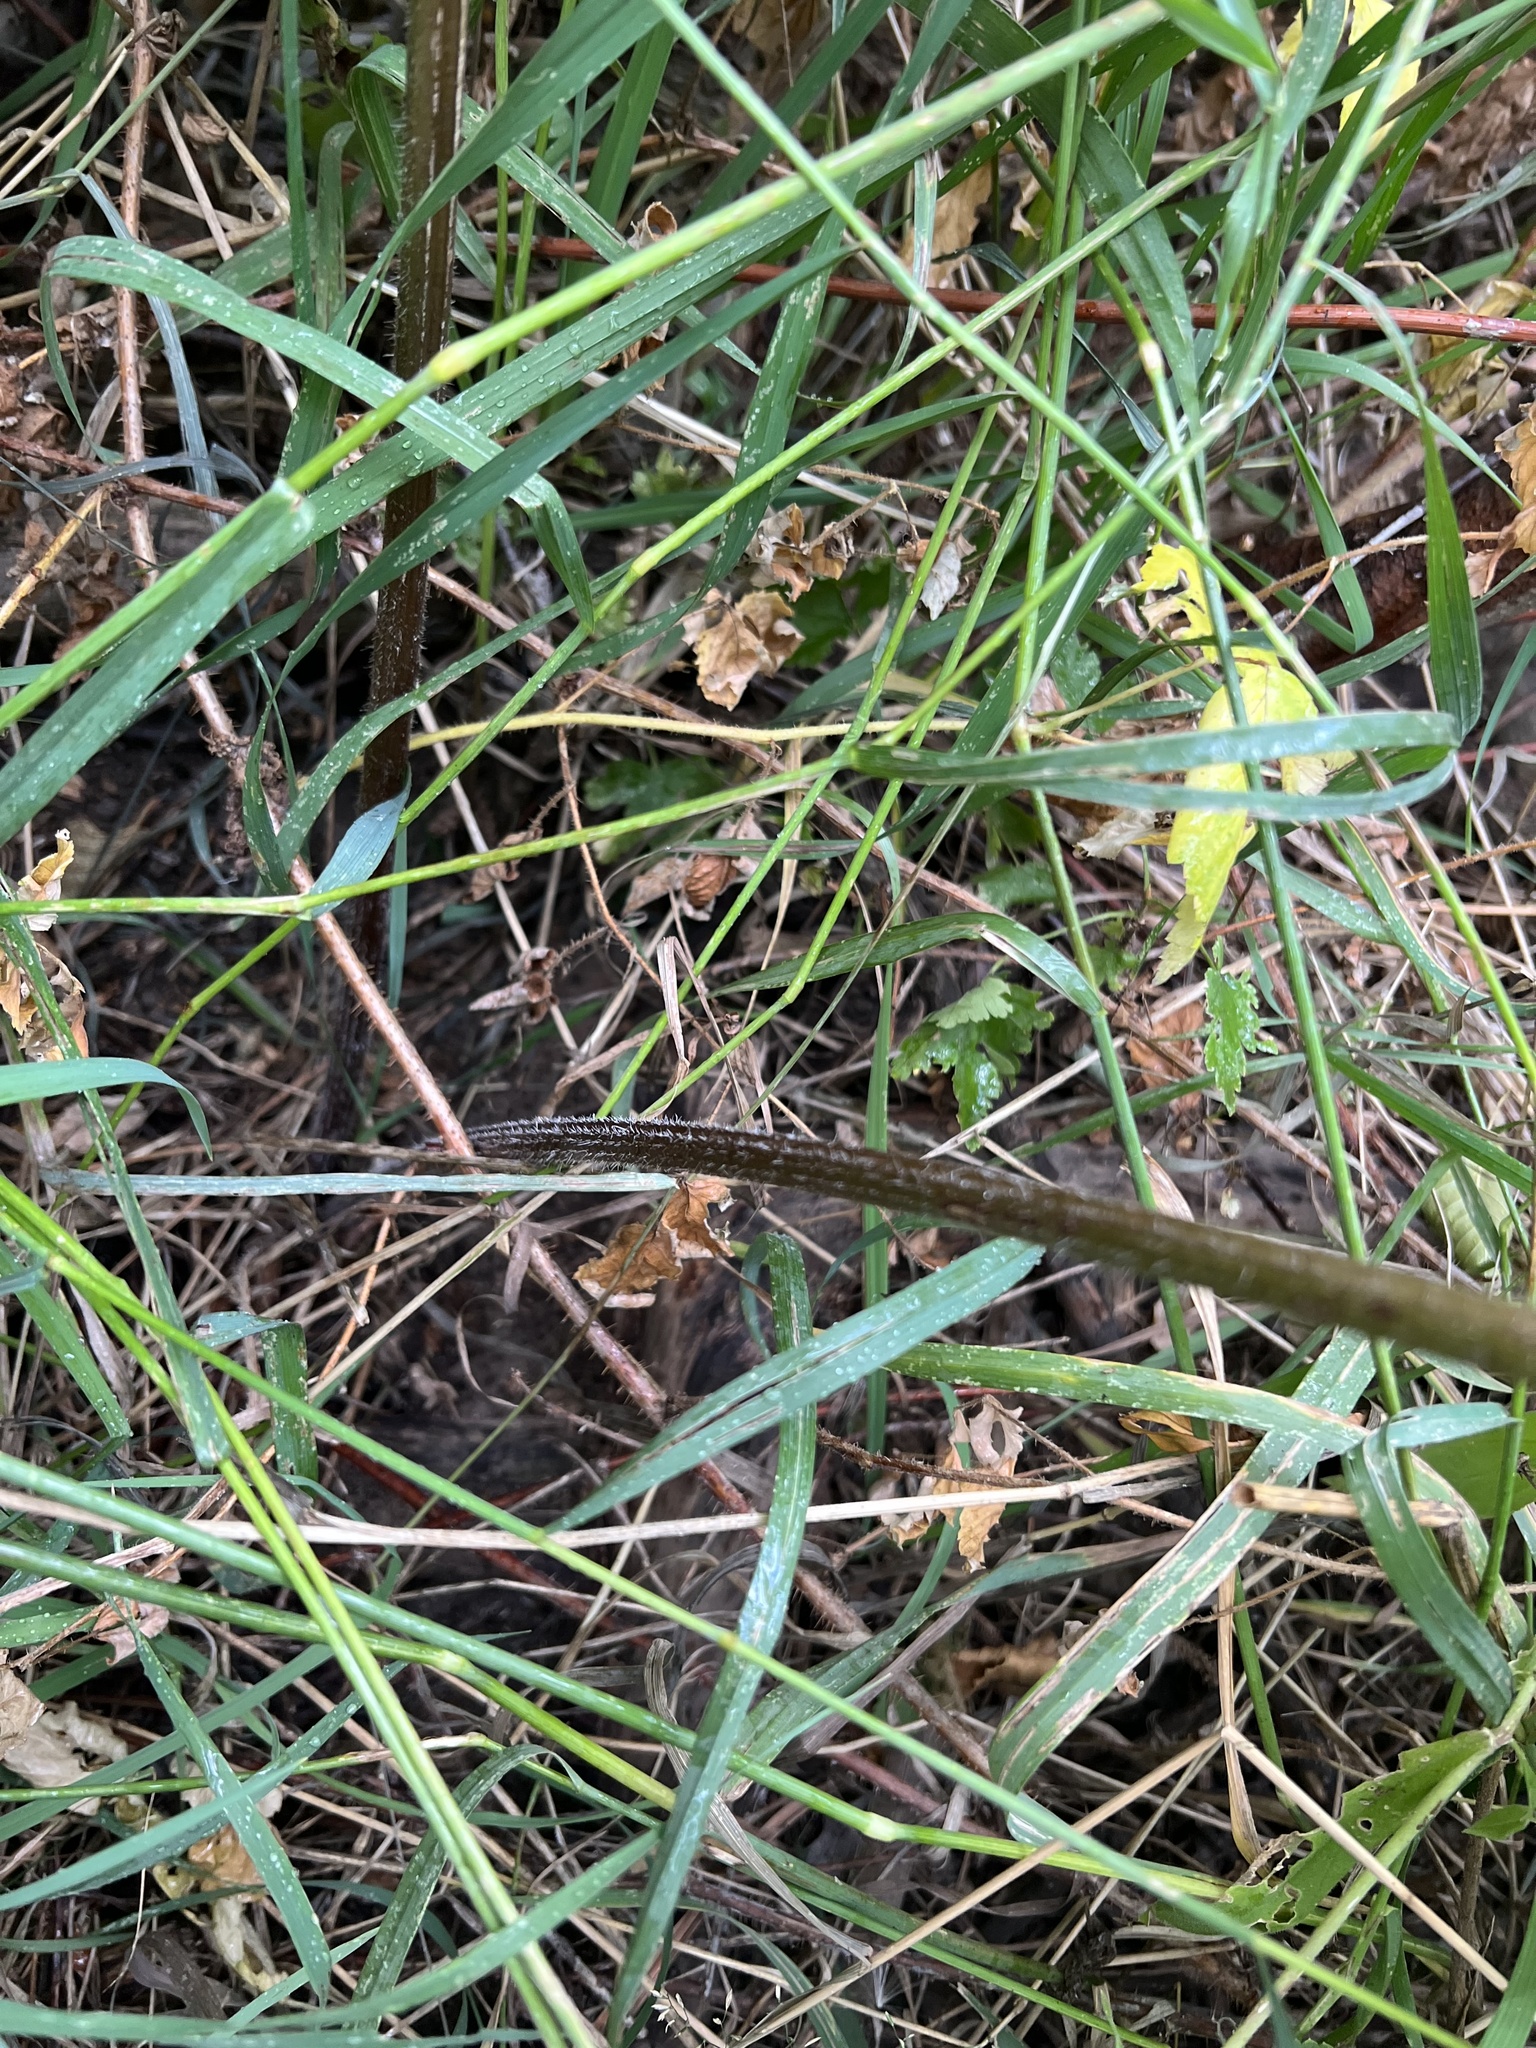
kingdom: Plantae
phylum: Tracheophyta
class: Magnoliopsida
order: Apiales
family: Apiaceae
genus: Heracleum
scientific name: Heracleum maximum
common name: American cow parsnip
